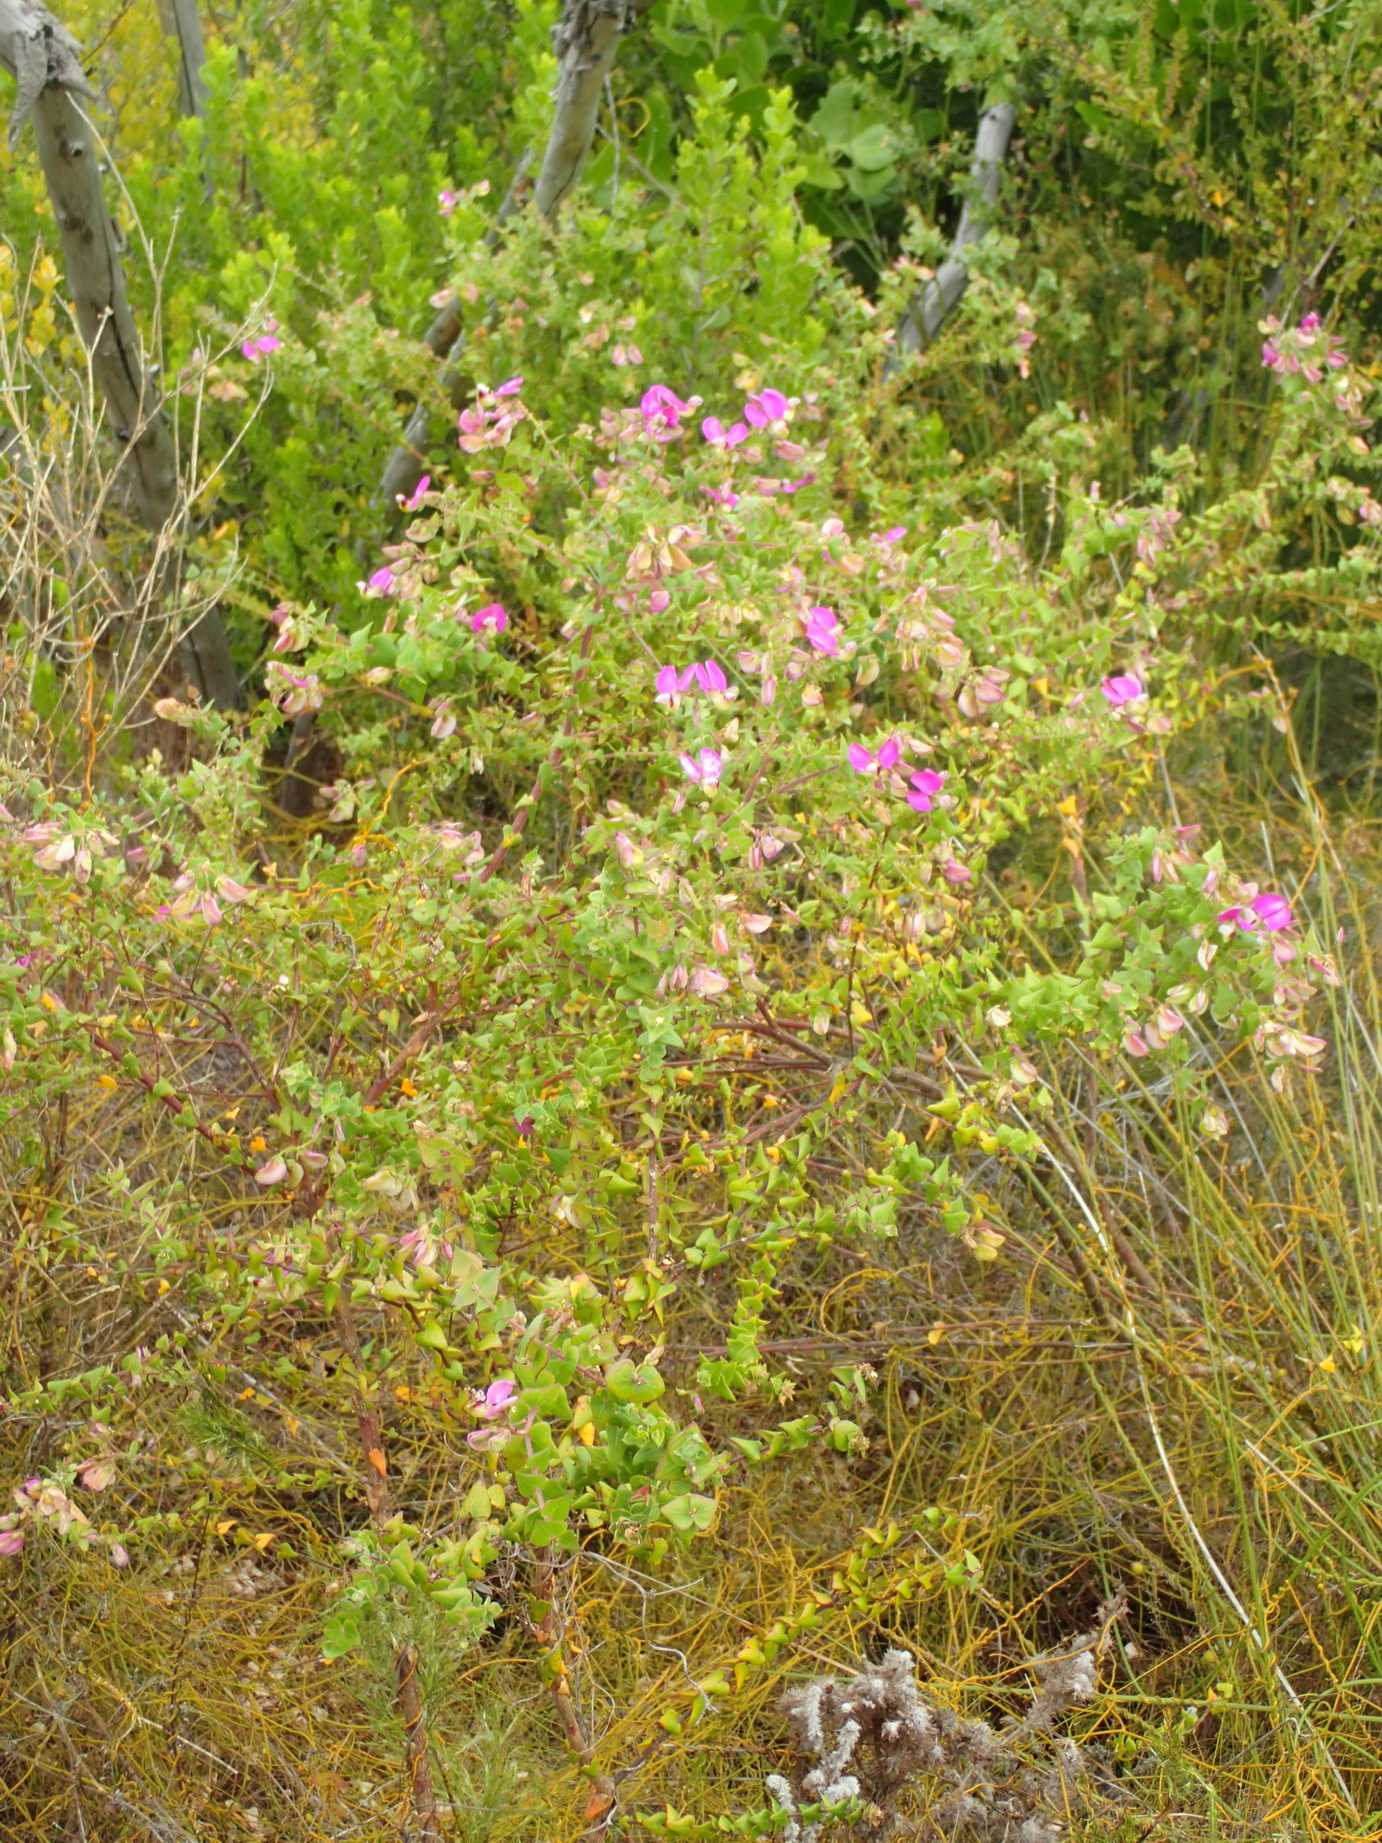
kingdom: Plantae
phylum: Tracheophyta
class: Magnoliopsida
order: Fabales
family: Polygalaceae
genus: Polygala
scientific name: Polygala fruticosa
